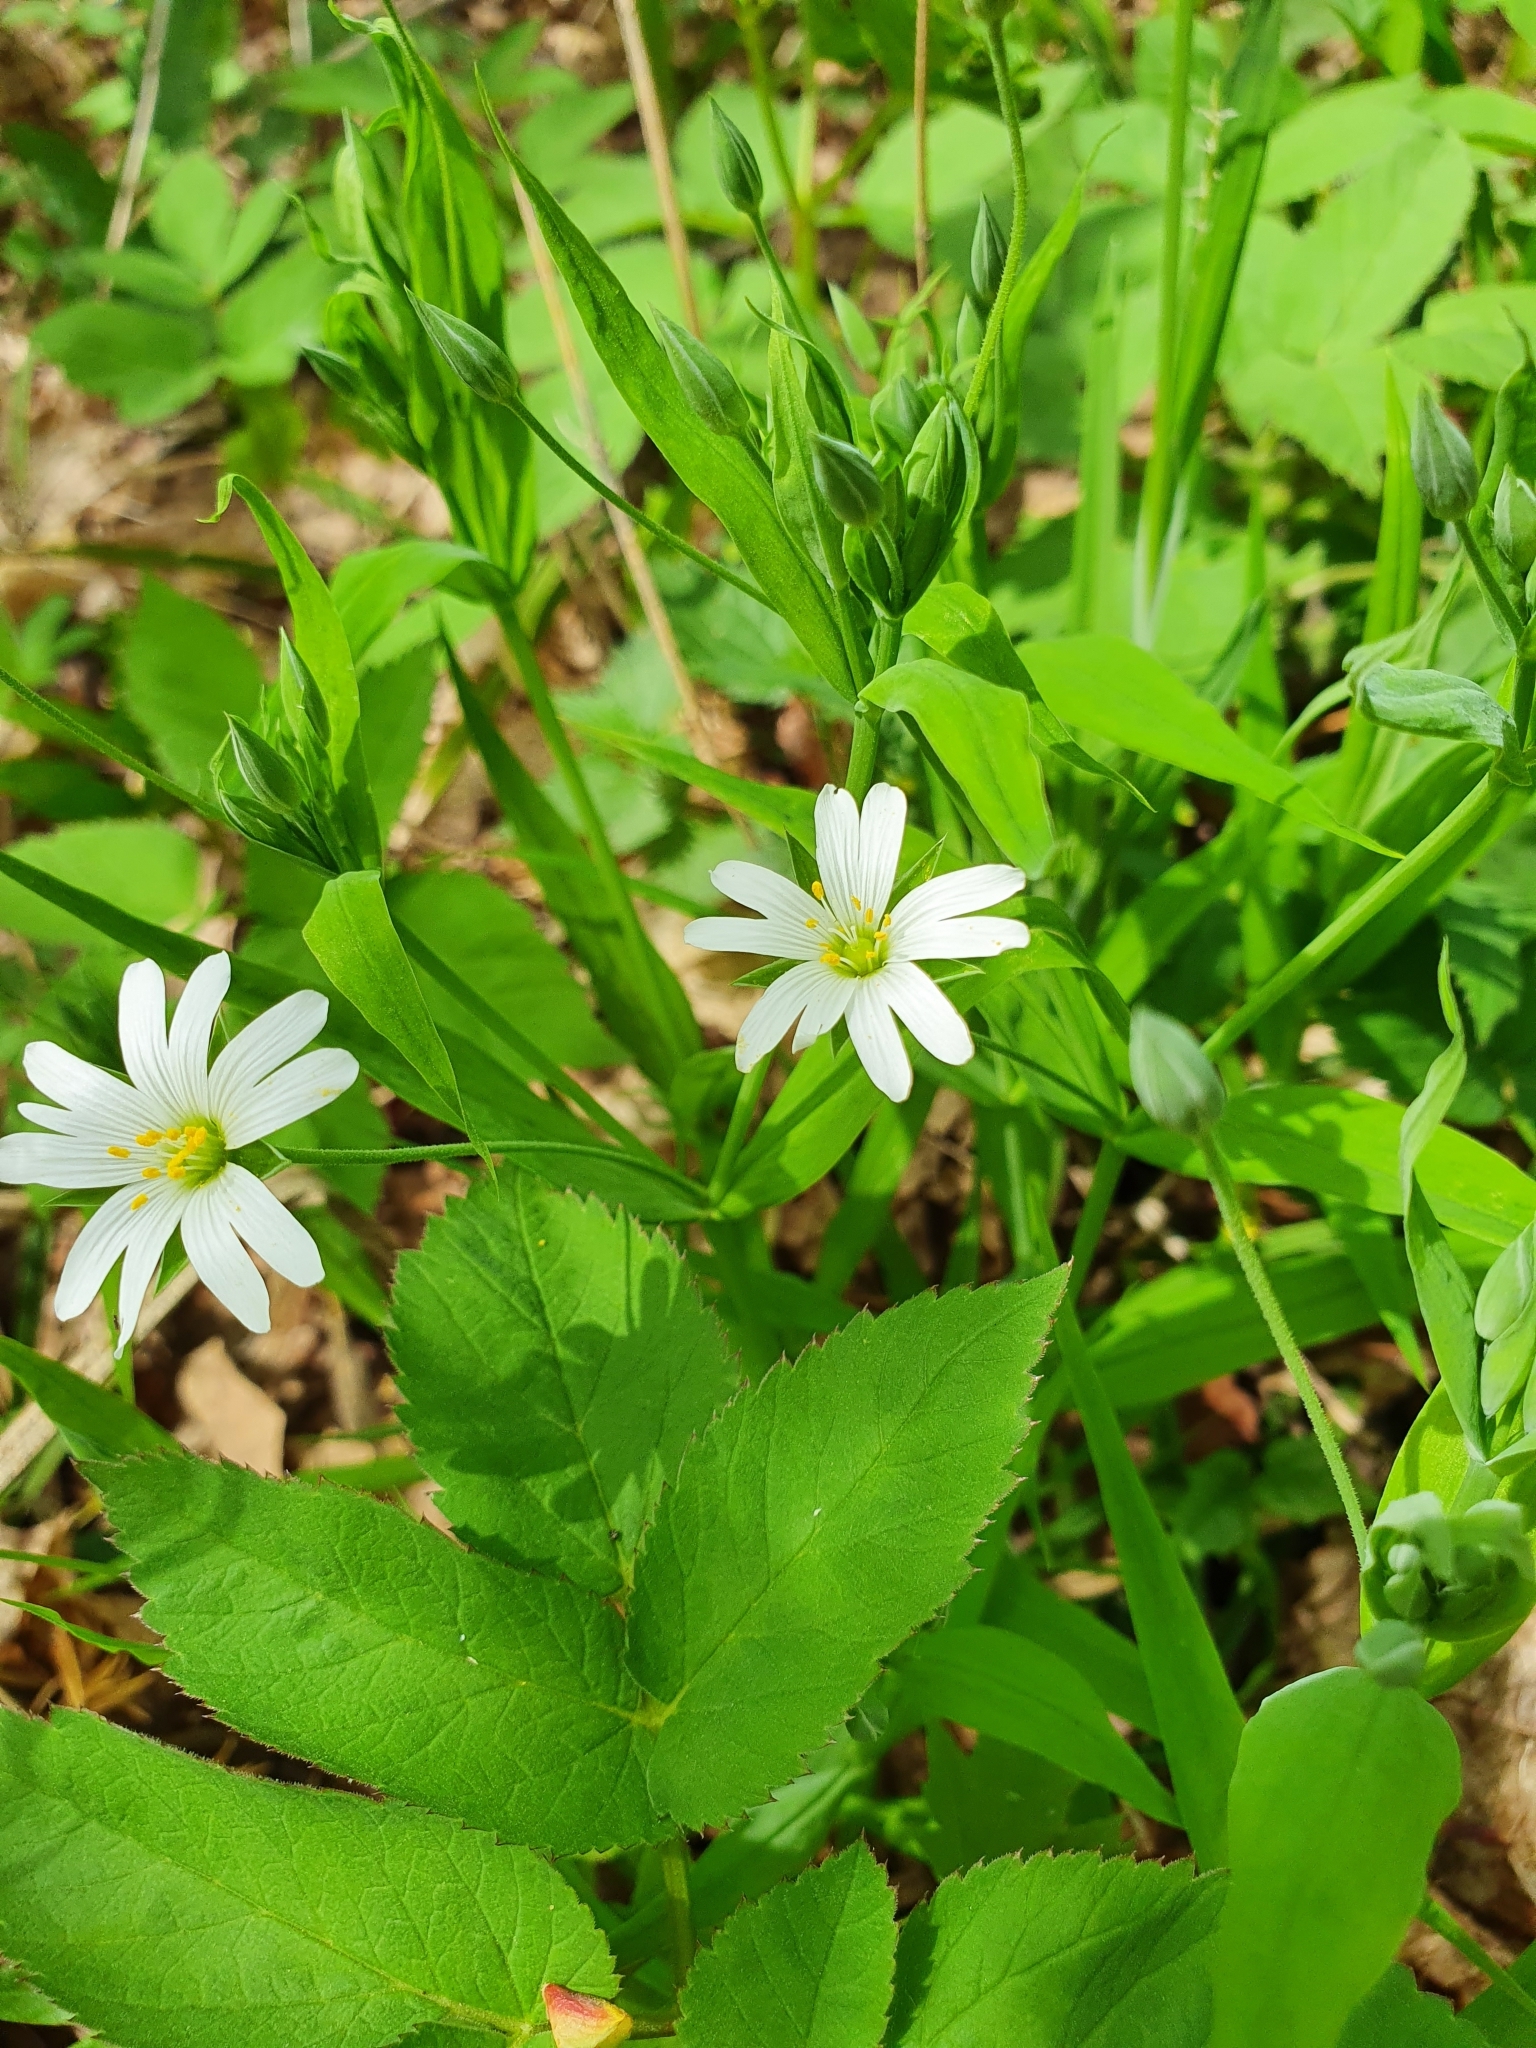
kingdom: Plantae
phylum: Tracheophyta
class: Magnoliopsida
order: Caryophyllales
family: Caryophyllaceae
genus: Rabelera
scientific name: Rabelera holostea
